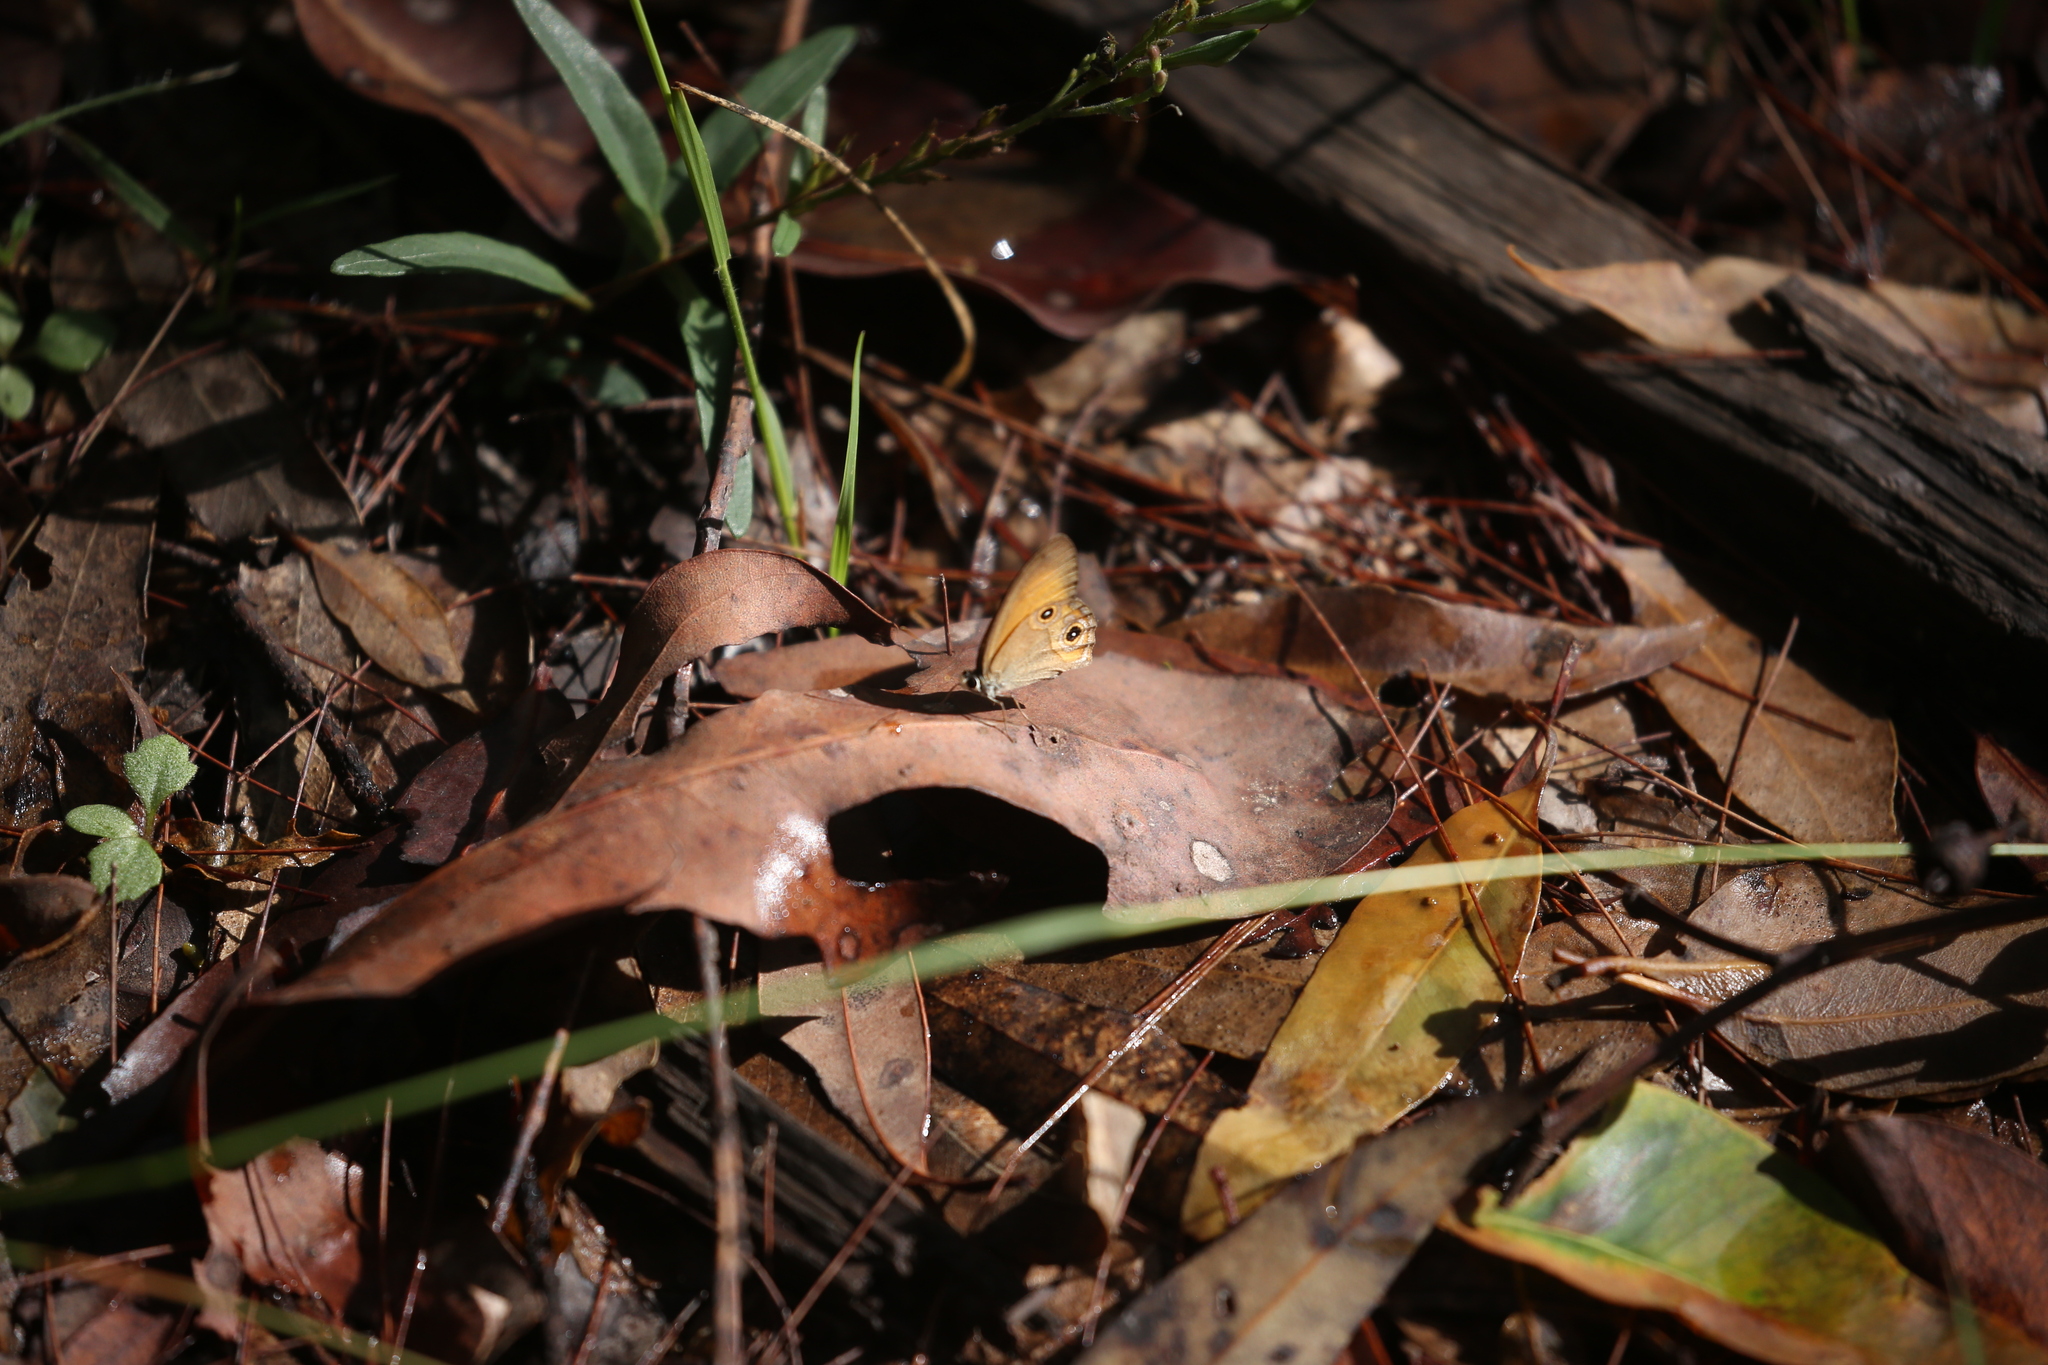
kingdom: Animalia
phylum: Arthropoda
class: Insecta
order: Lepidoptera
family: Nymphalidae
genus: Hypocysta
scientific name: Hypocysta adiante
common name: Orange ringlet
